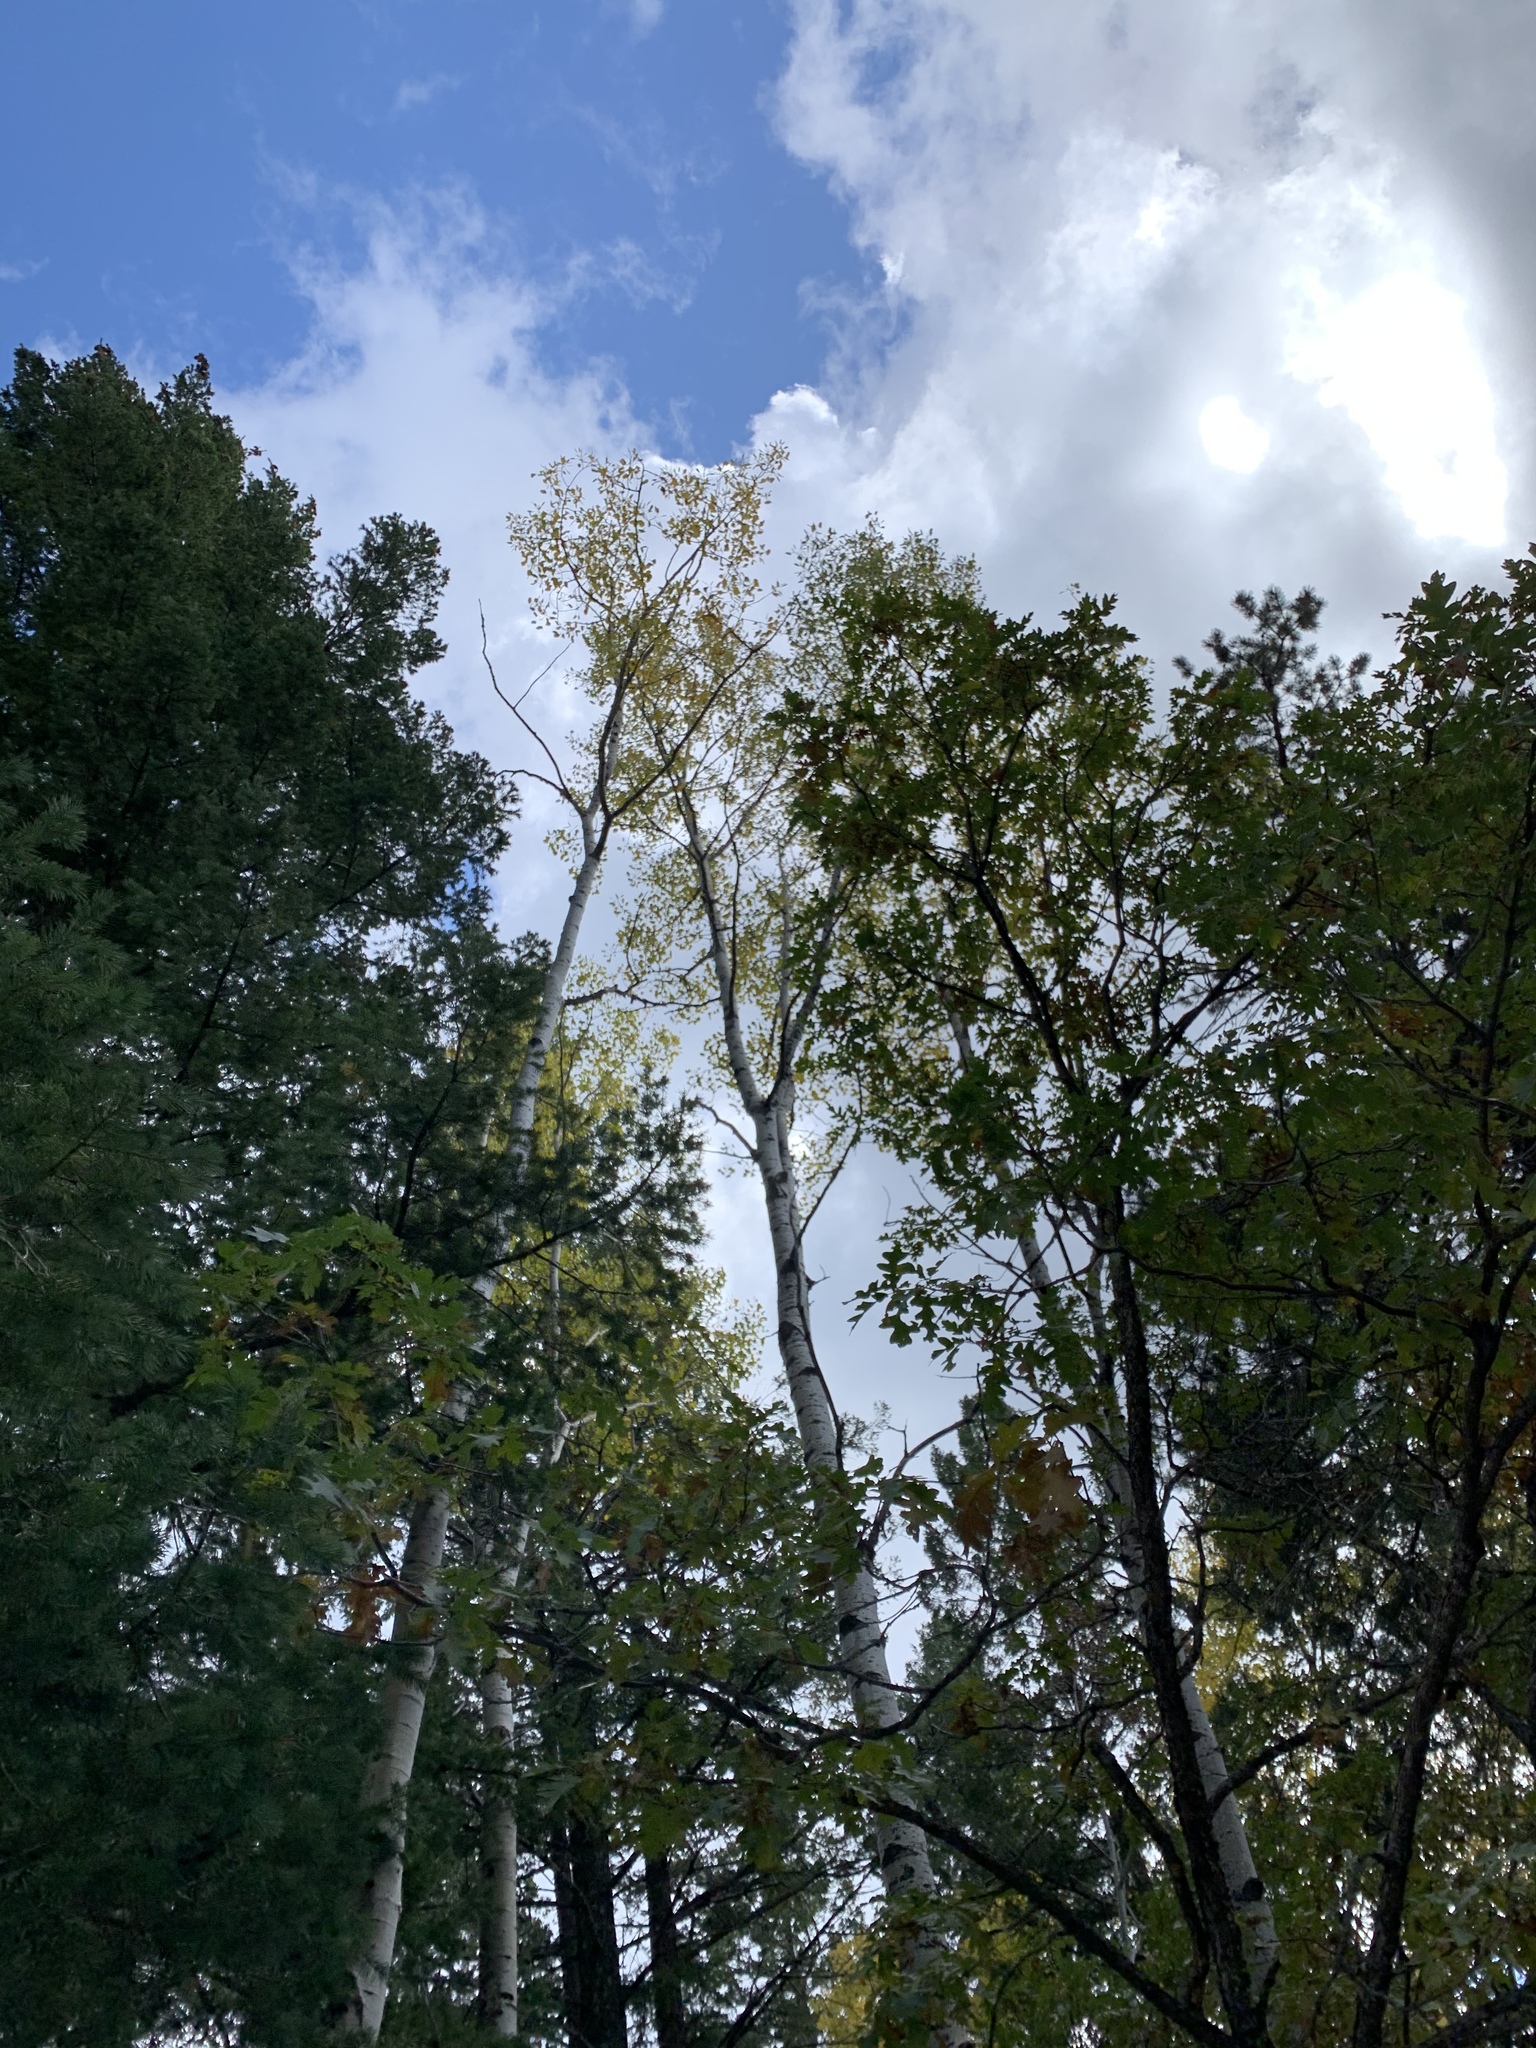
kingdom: Plantae
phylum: Tracheophyta
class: Magnoliopsida
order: Fabales
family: Fabaceae
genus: Robinia
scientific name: Robinia neomexicana
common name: New mexico locust
